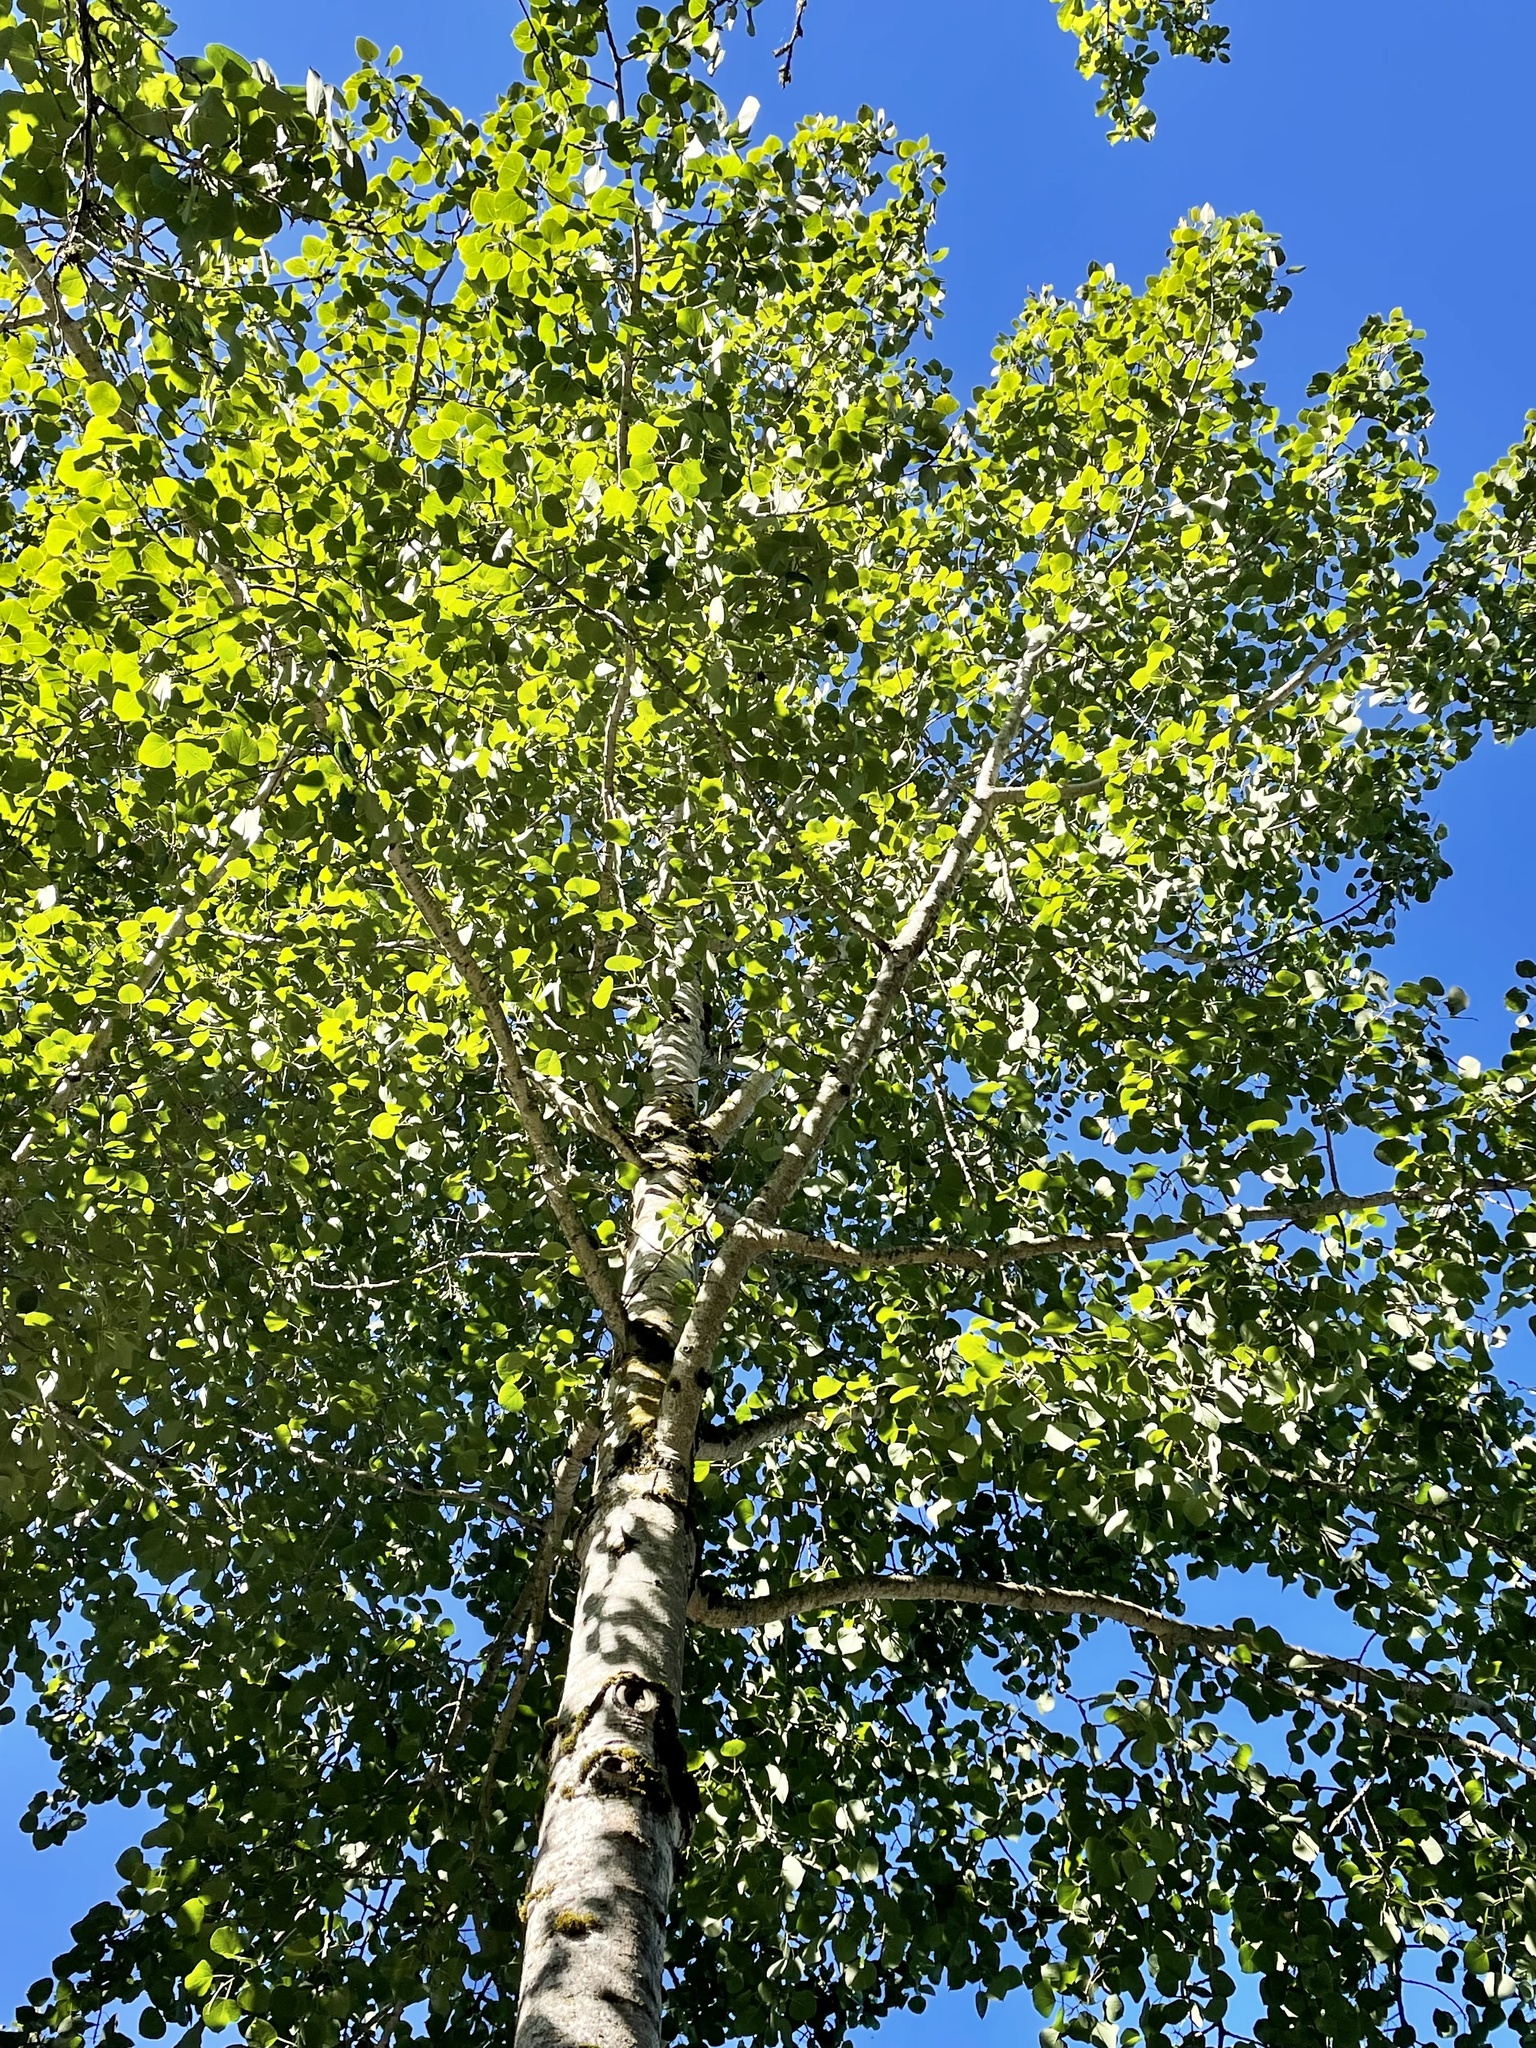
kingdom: Plantae
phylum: Tracheophyta
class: Magnoliopsida
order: Malpighiales
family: Salicaceae
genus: Populus
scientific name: Populus tremuloides
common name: Quaking aspen
